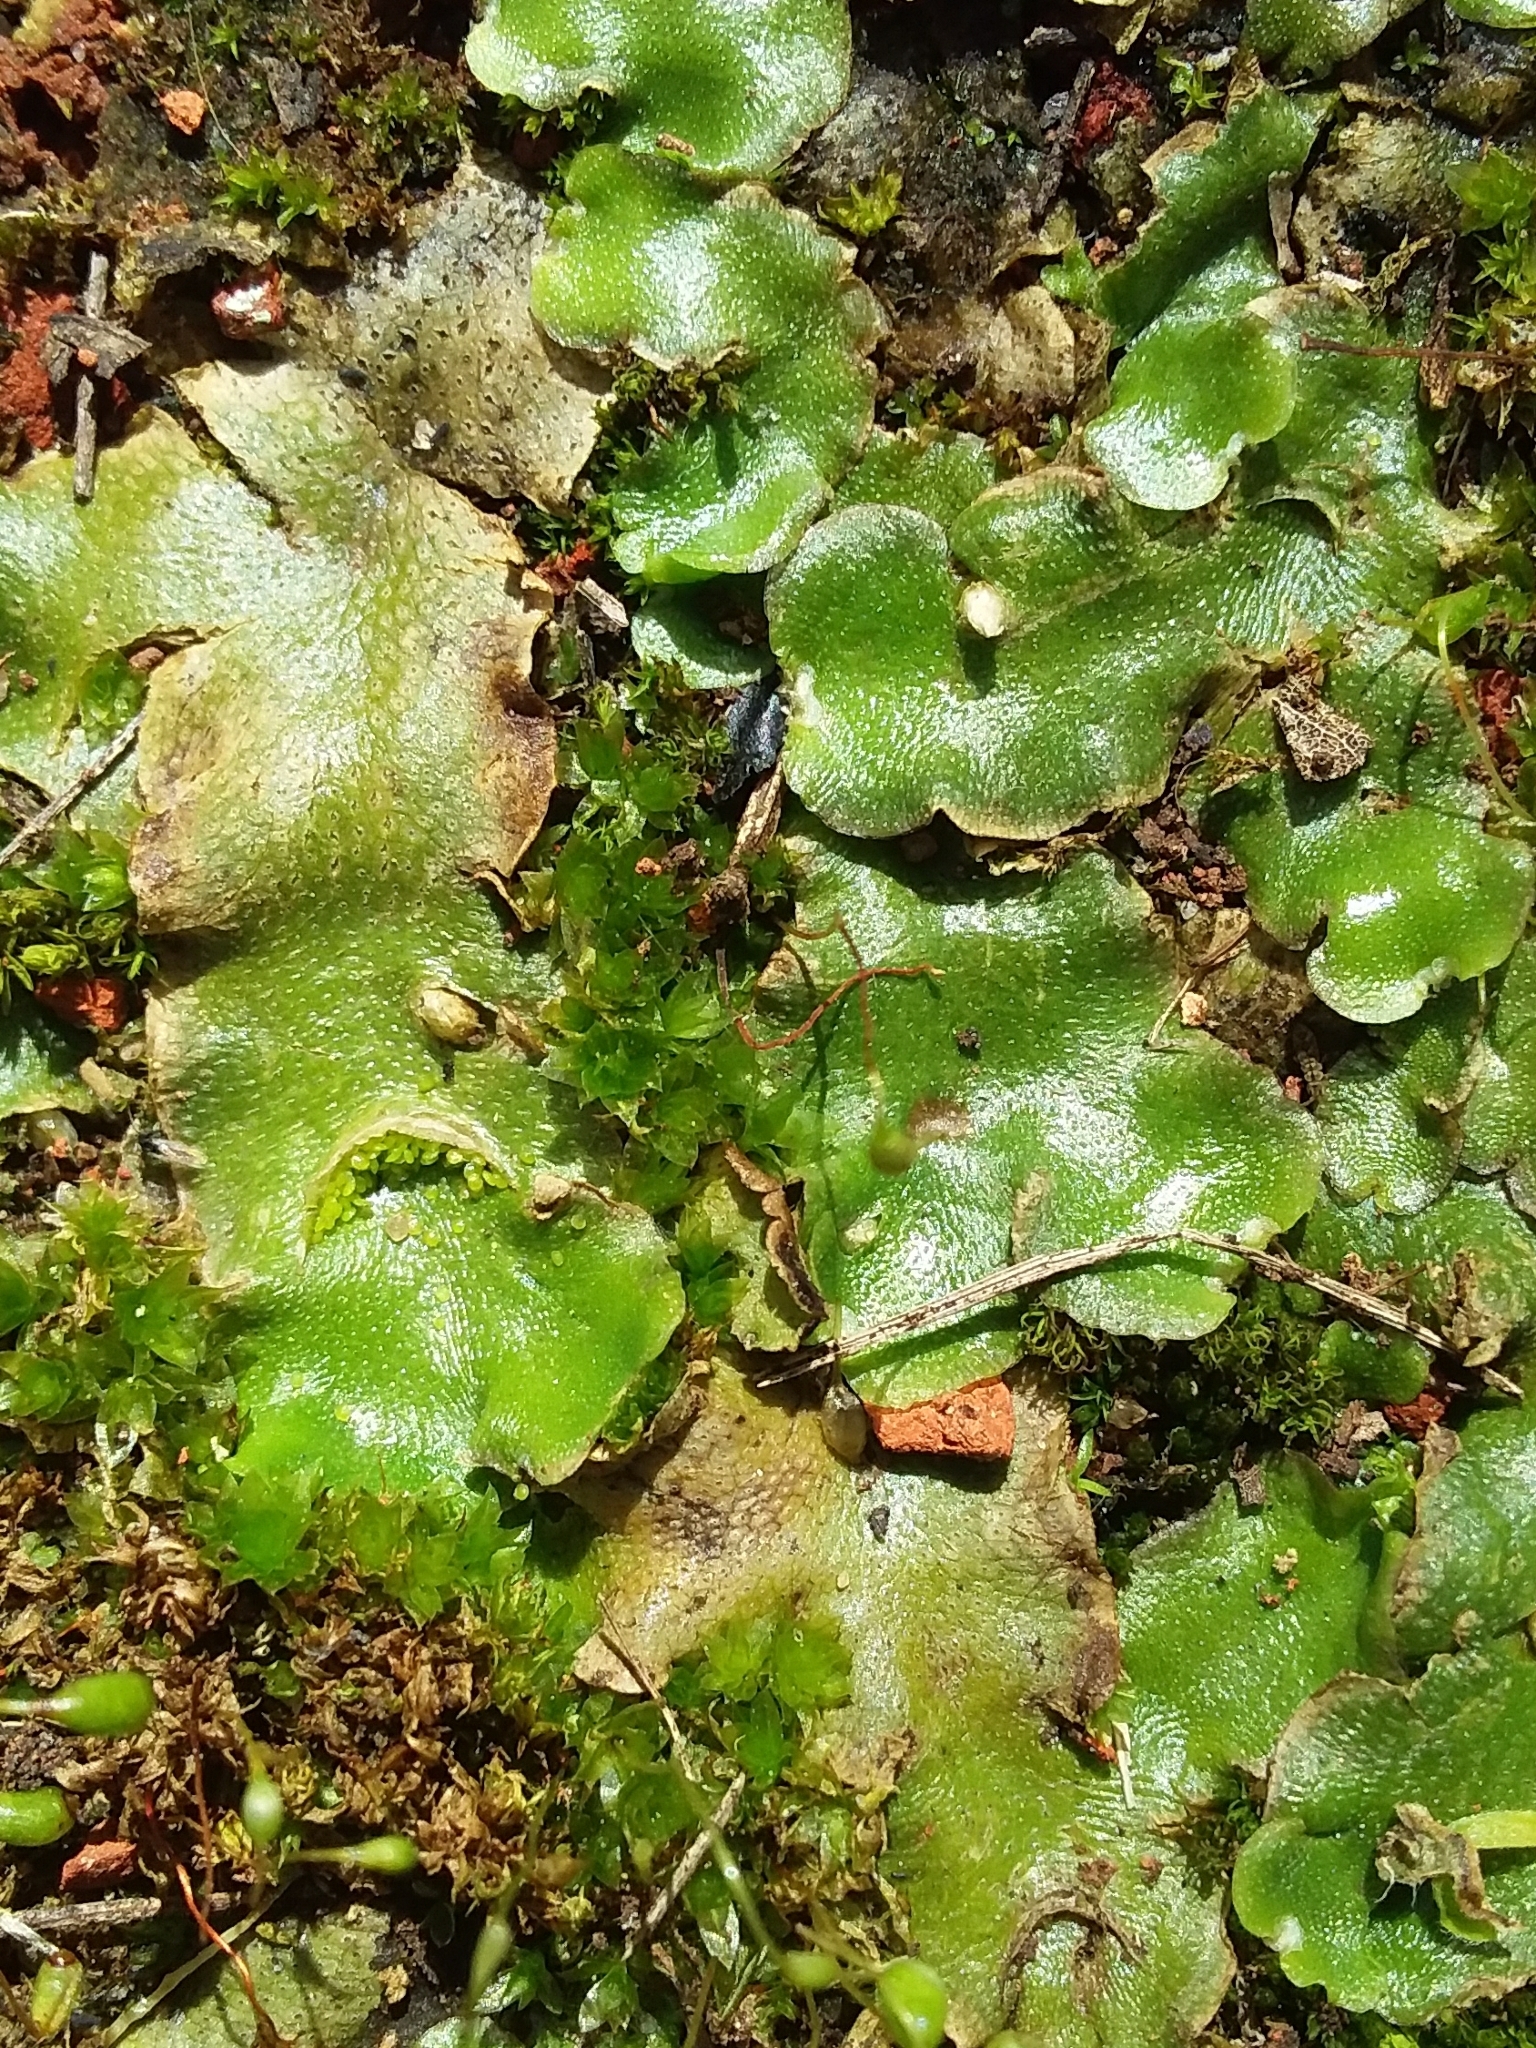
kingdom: Plantae
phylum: Marchantiophyta
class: Marchantiopsida
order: Lunulariales
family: Lunulariaceae
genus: Lunularia
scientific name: Lunularia cruciata
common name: Crescent-cup liverwort
